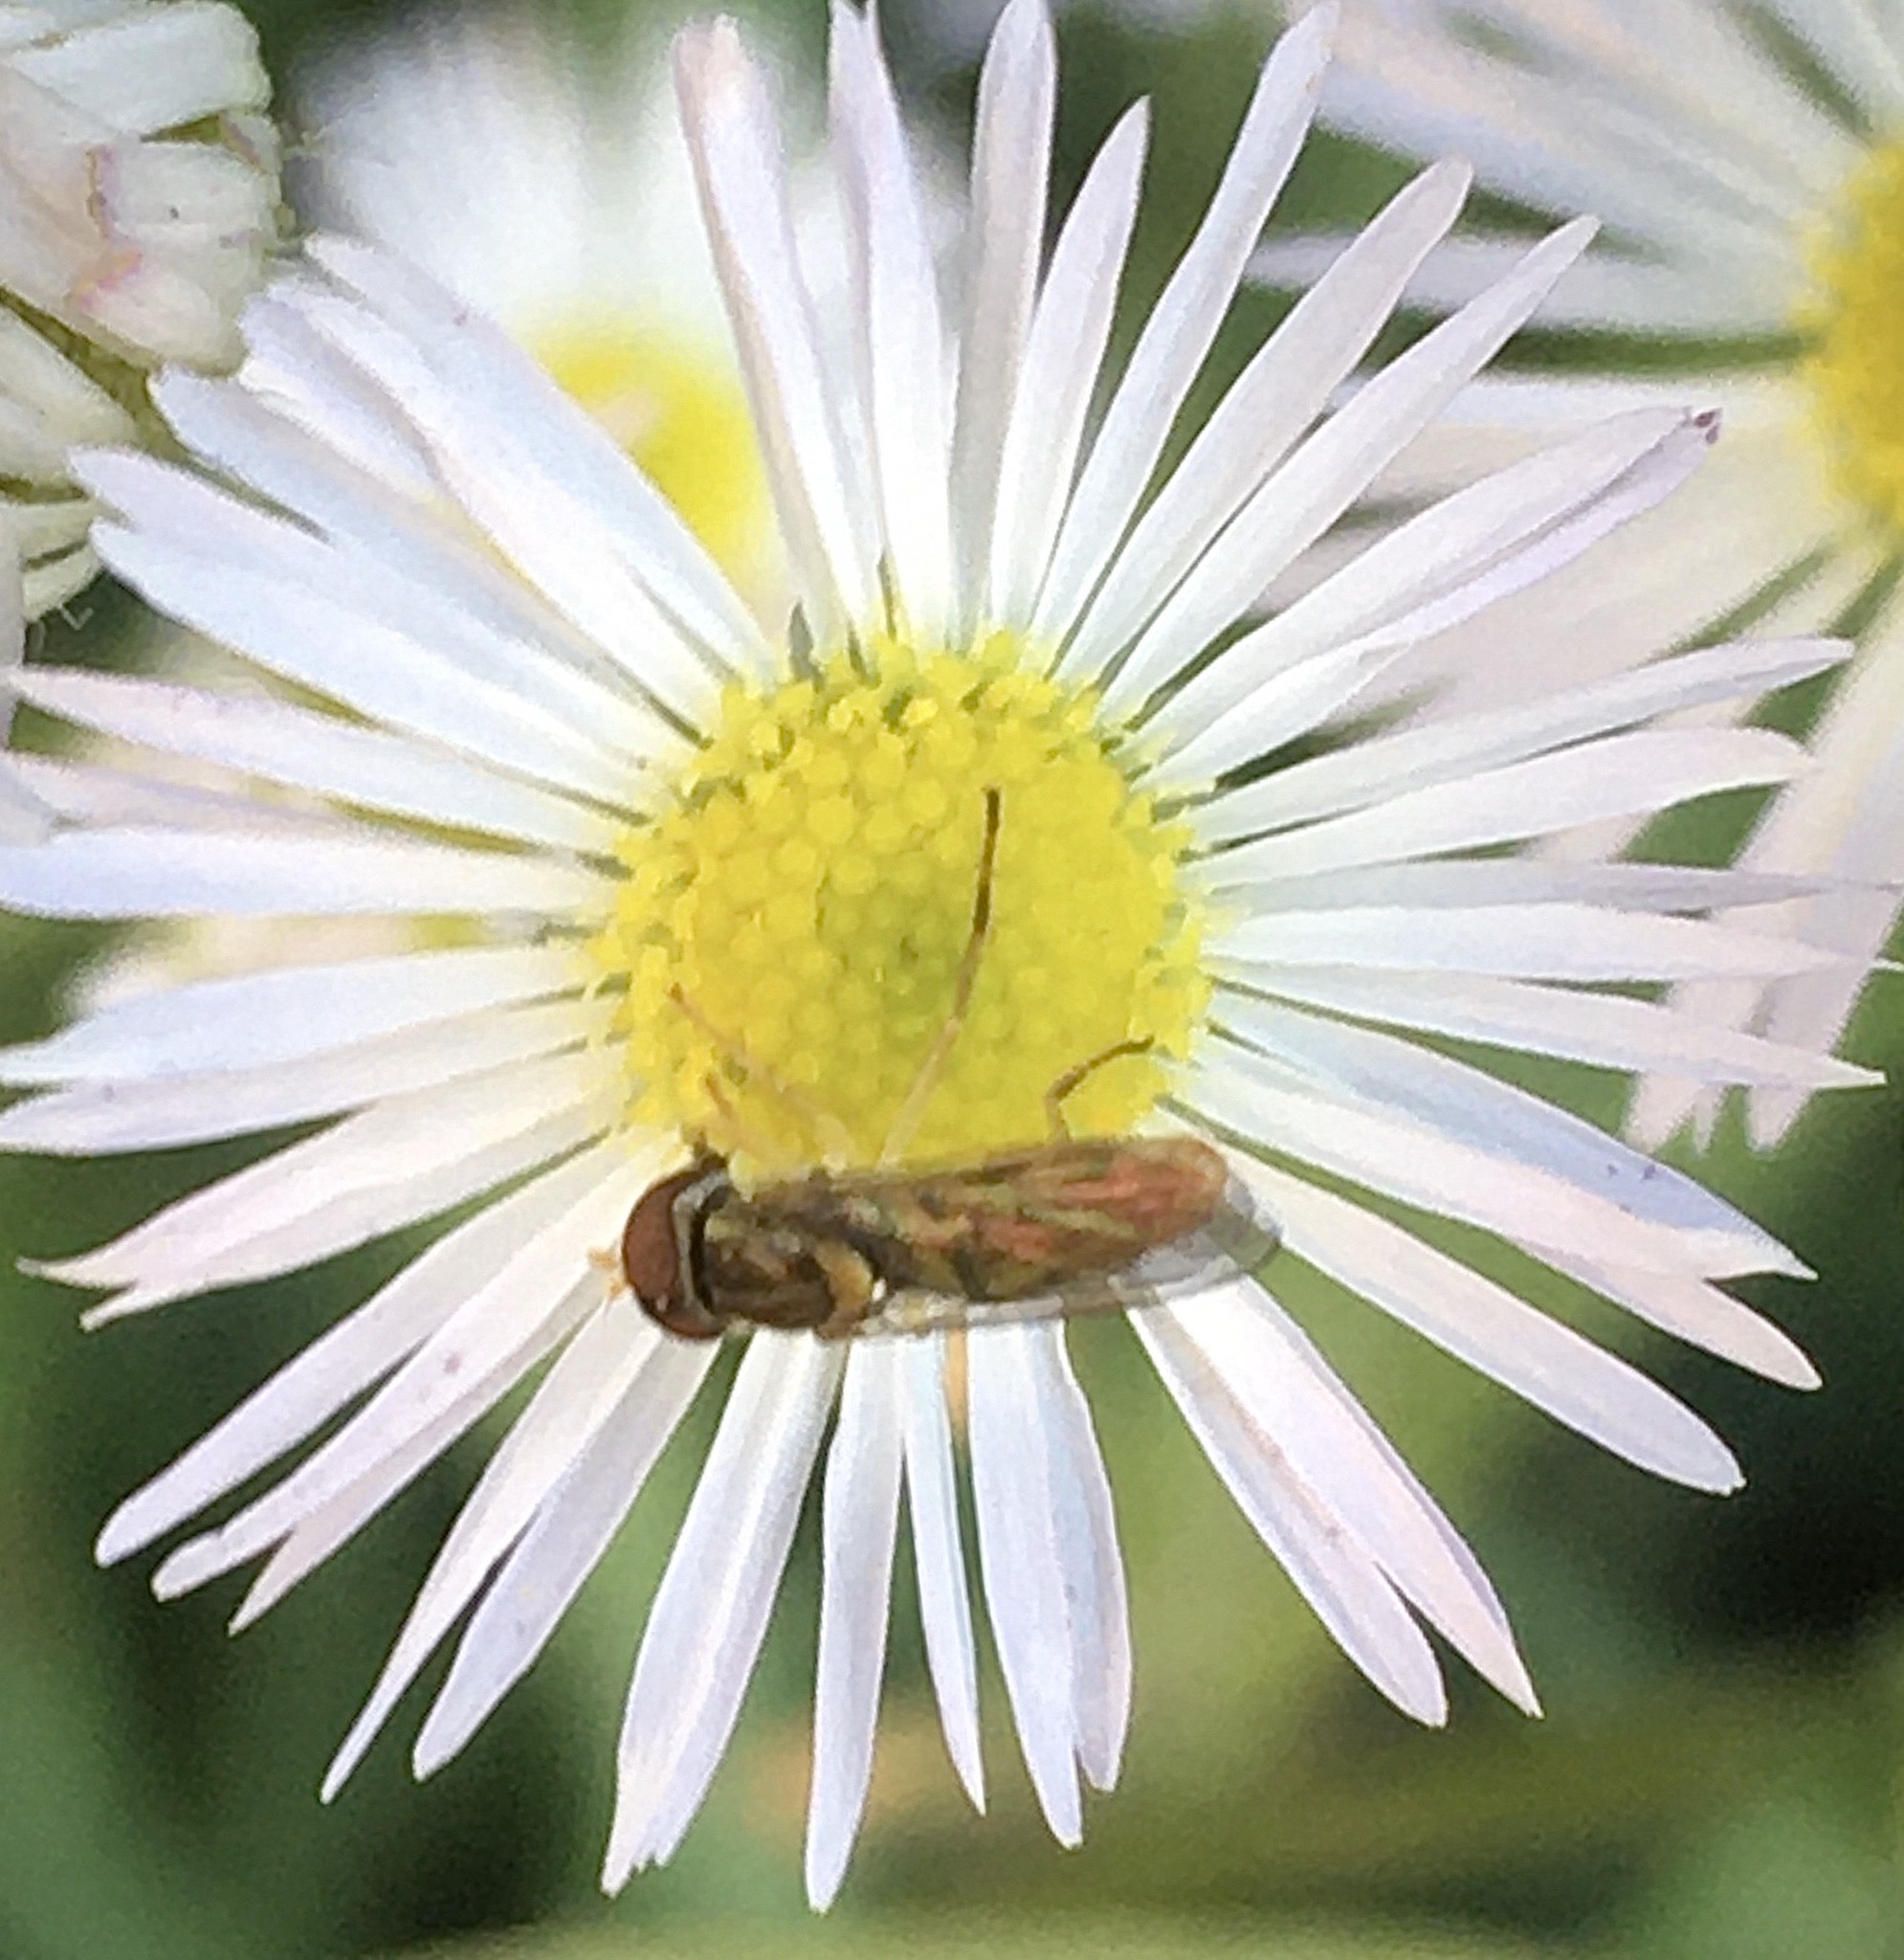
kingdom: Animalia
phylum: Arthropoda
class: Insecta
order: Diptera
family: Syrphidae
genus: Toxomerus
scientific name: Toxomerus marginatus
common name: Syrphid fly
